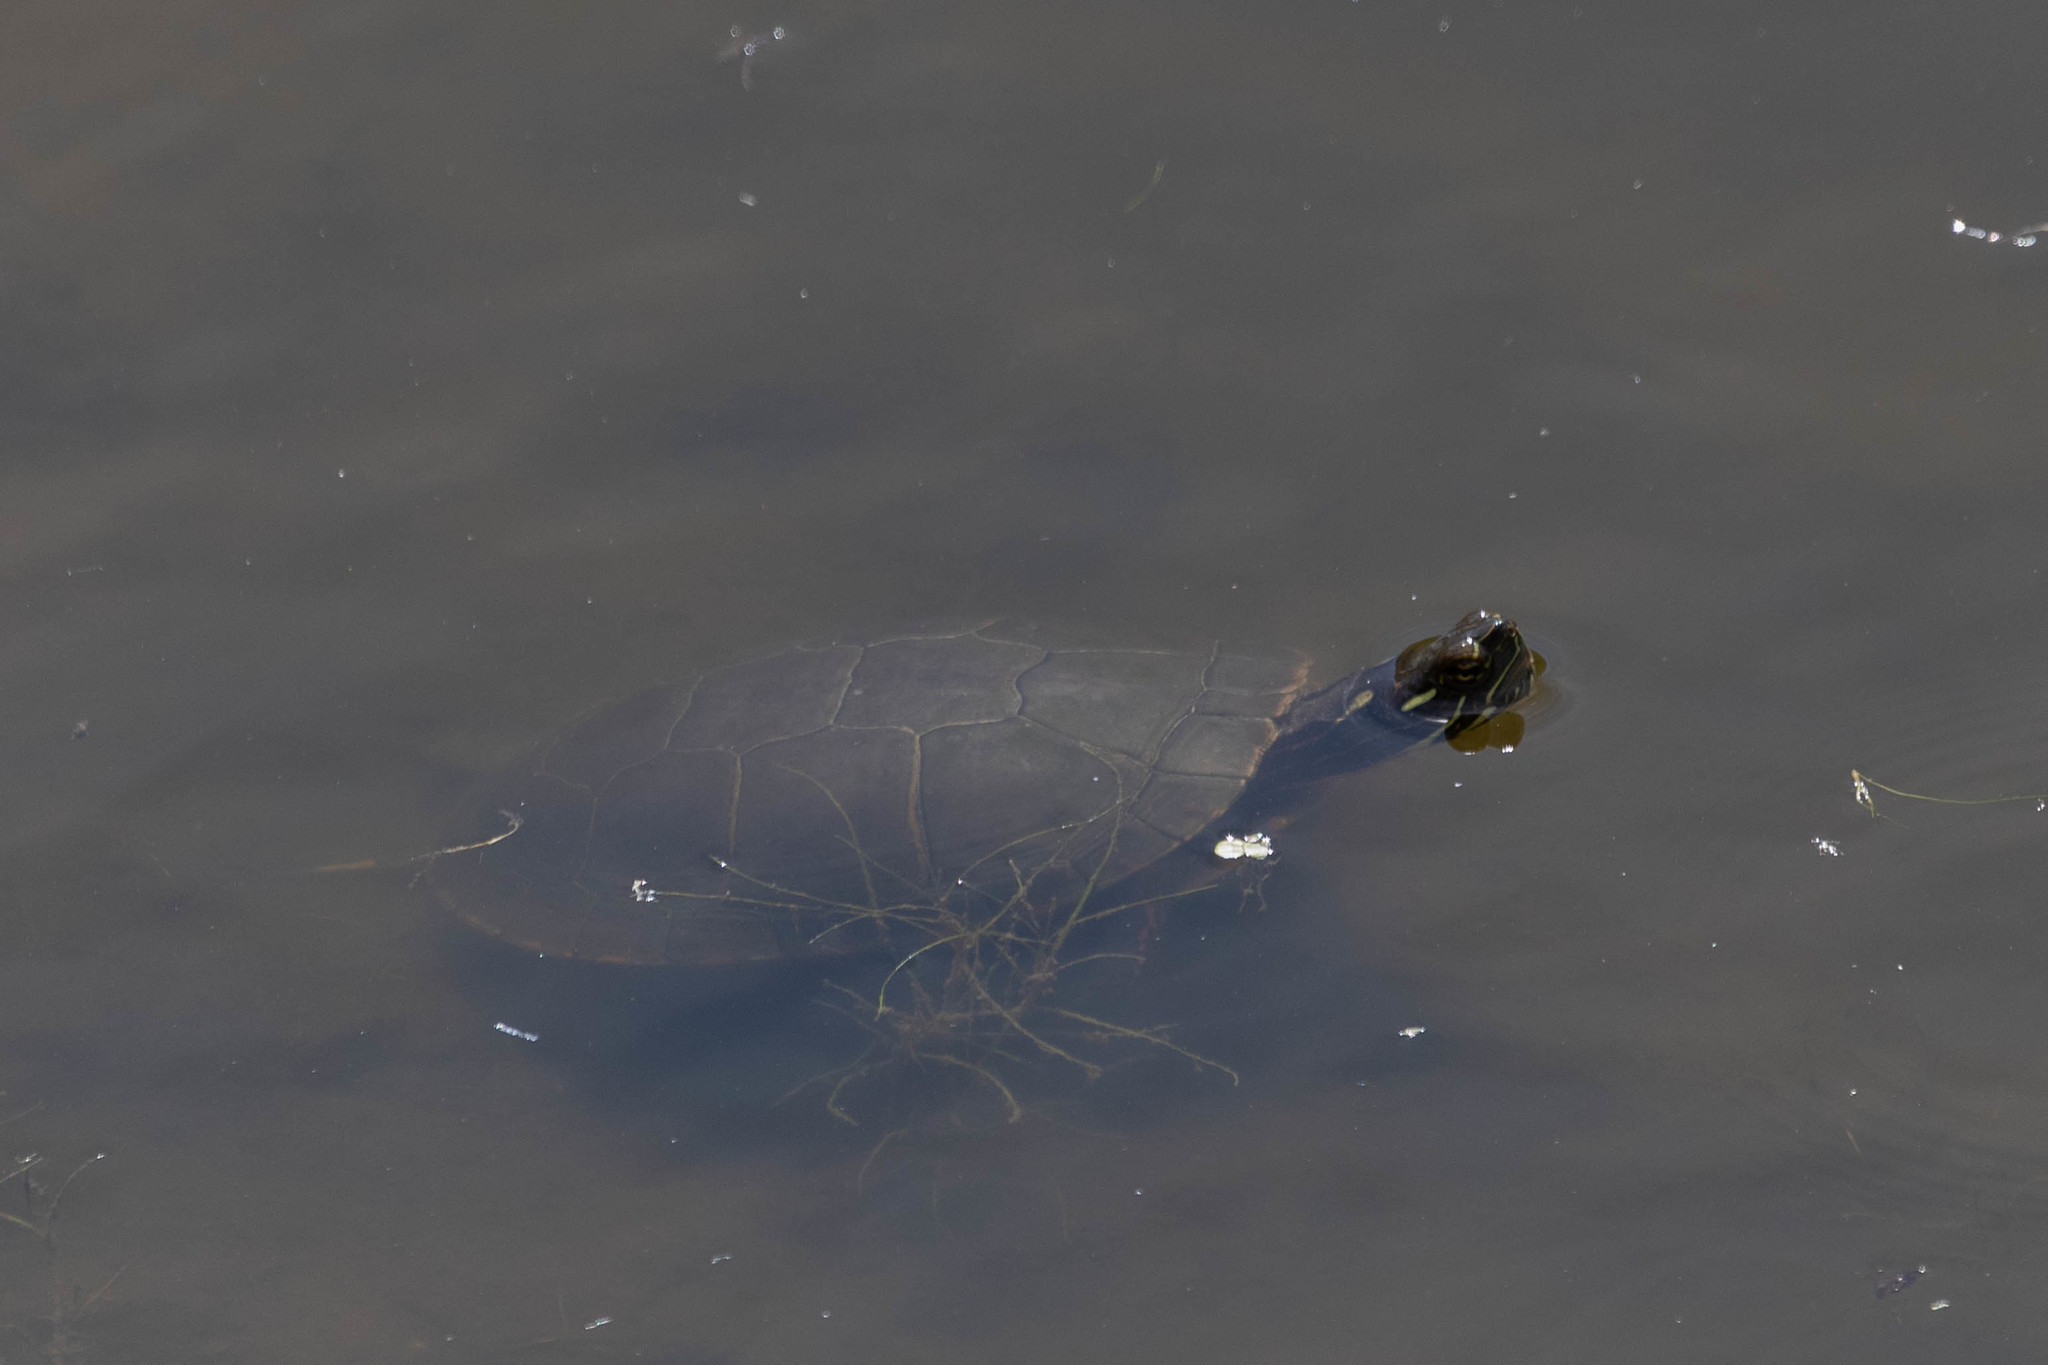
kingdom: Animalia
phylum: Chordata
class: Testudines
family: Emydidae
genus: Chrysemys
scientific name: Chrysemys picta
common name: Painted turtle
